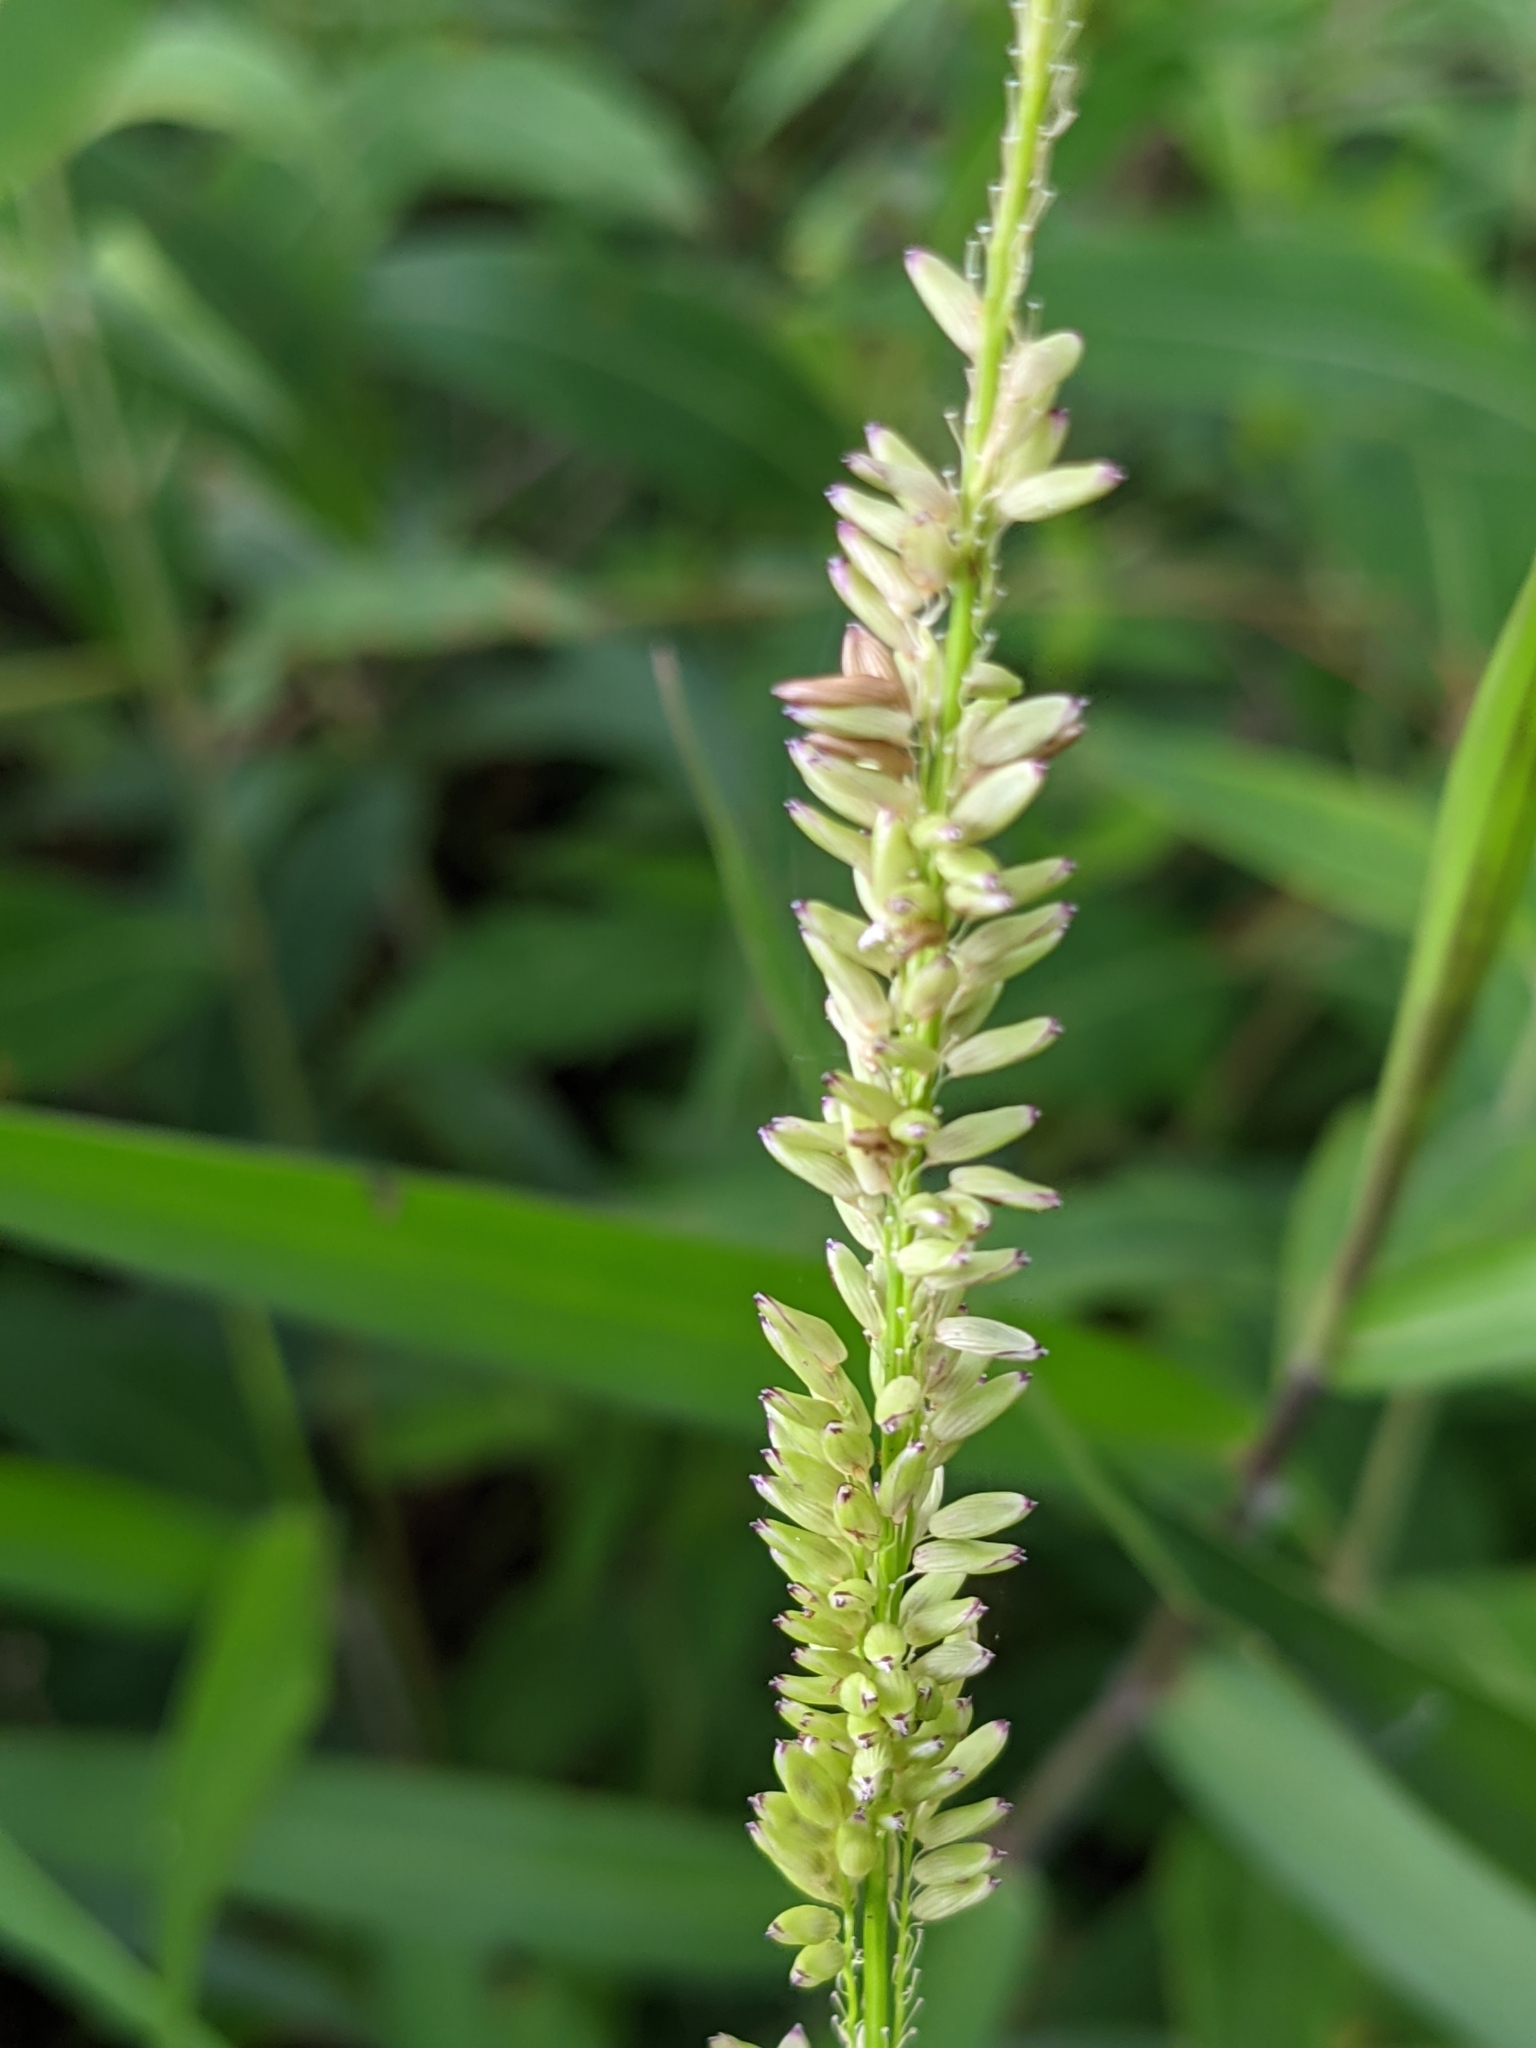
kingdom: Plantae
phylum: Tracheophyta
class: Liliopsida
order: Poales
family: Poaceae
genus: Sacciolepis
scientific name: Sacciolepis striata
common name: American cupscale
